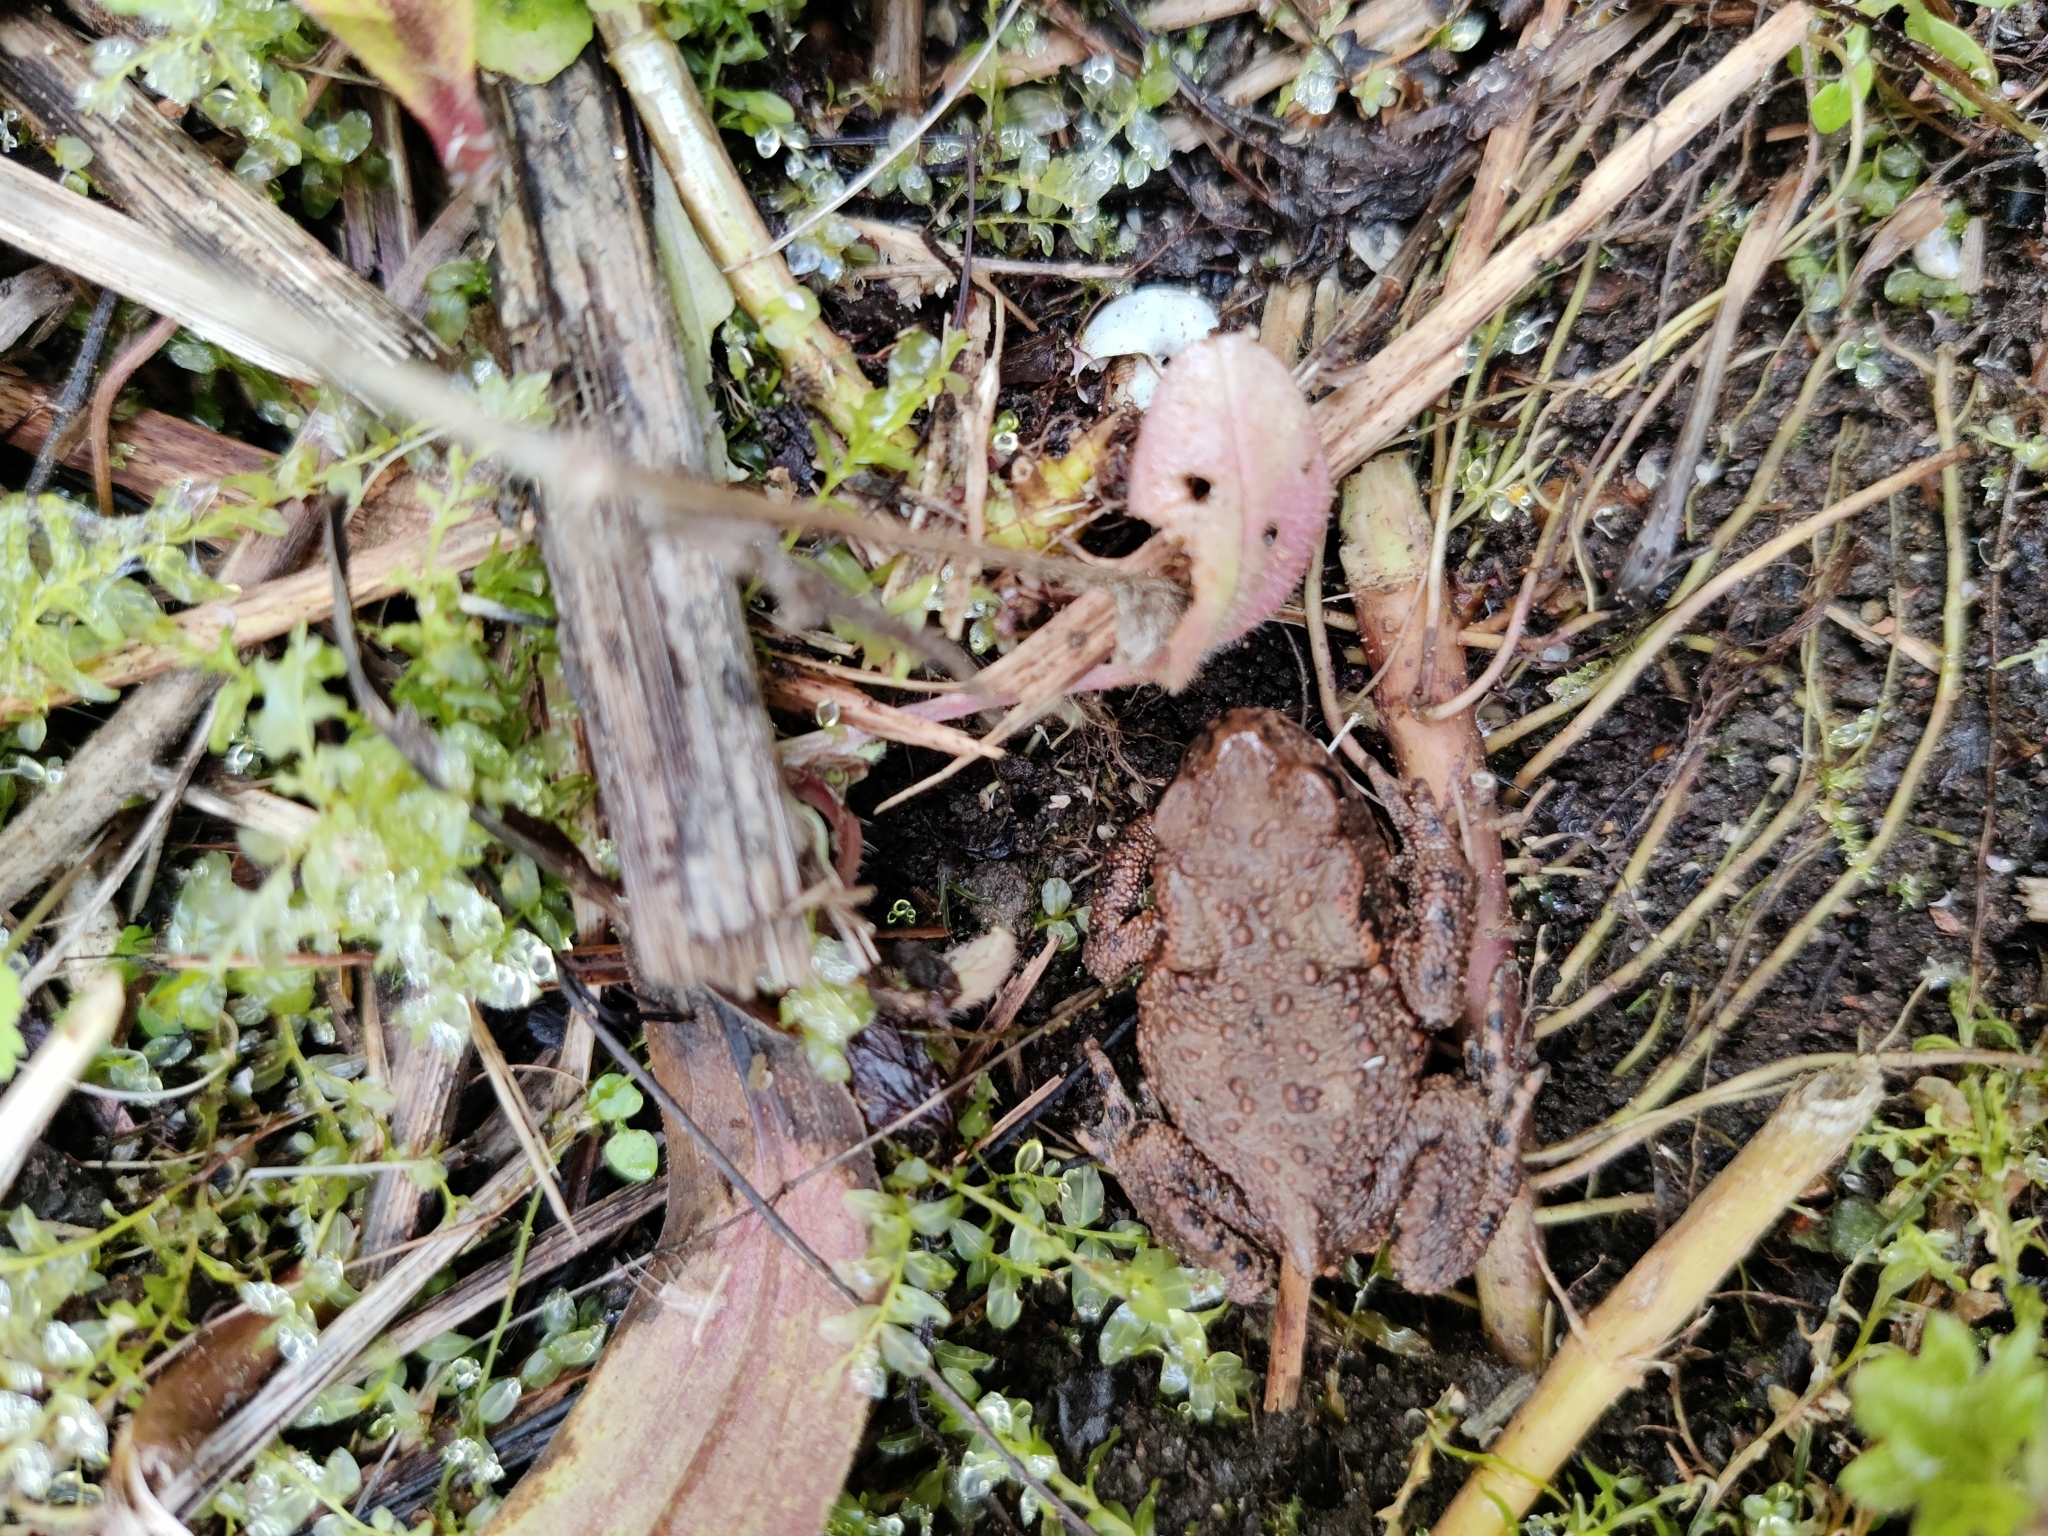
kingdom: Animalia
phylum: Chordata
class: Amphibia
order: Anura
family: Bufonidae
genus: Bufo
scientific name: Bufo bufo
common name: Common toad
